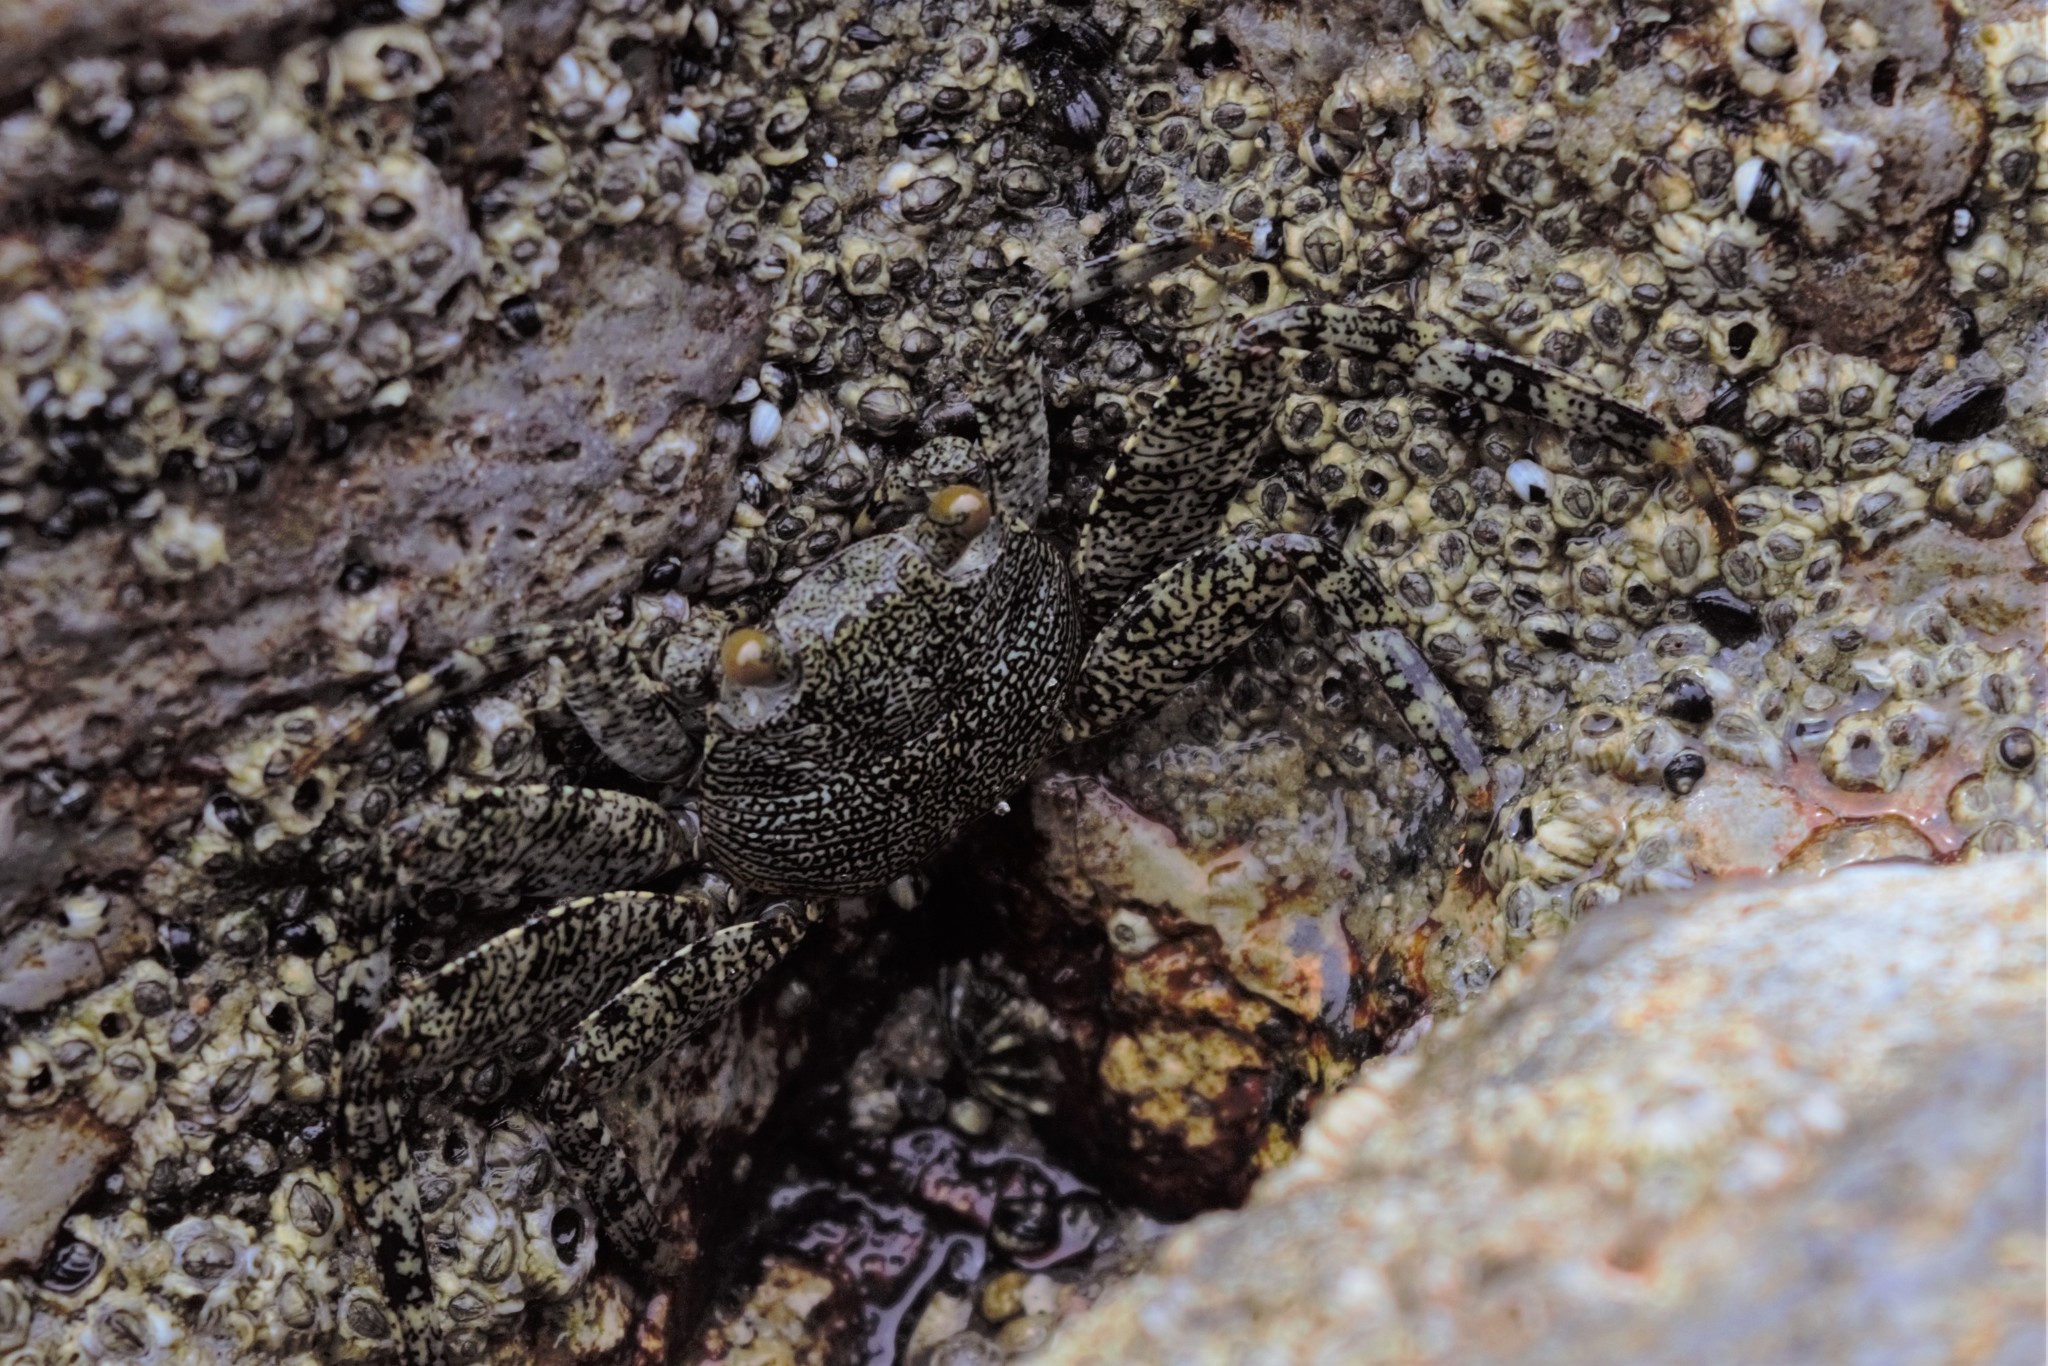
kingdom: Animalia
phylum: Arthropoda
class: Malacostraca
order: Decapoda
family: Grapsidae
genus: Grapsus
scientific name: Grapsus grapsus
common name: Sally lightfoot
